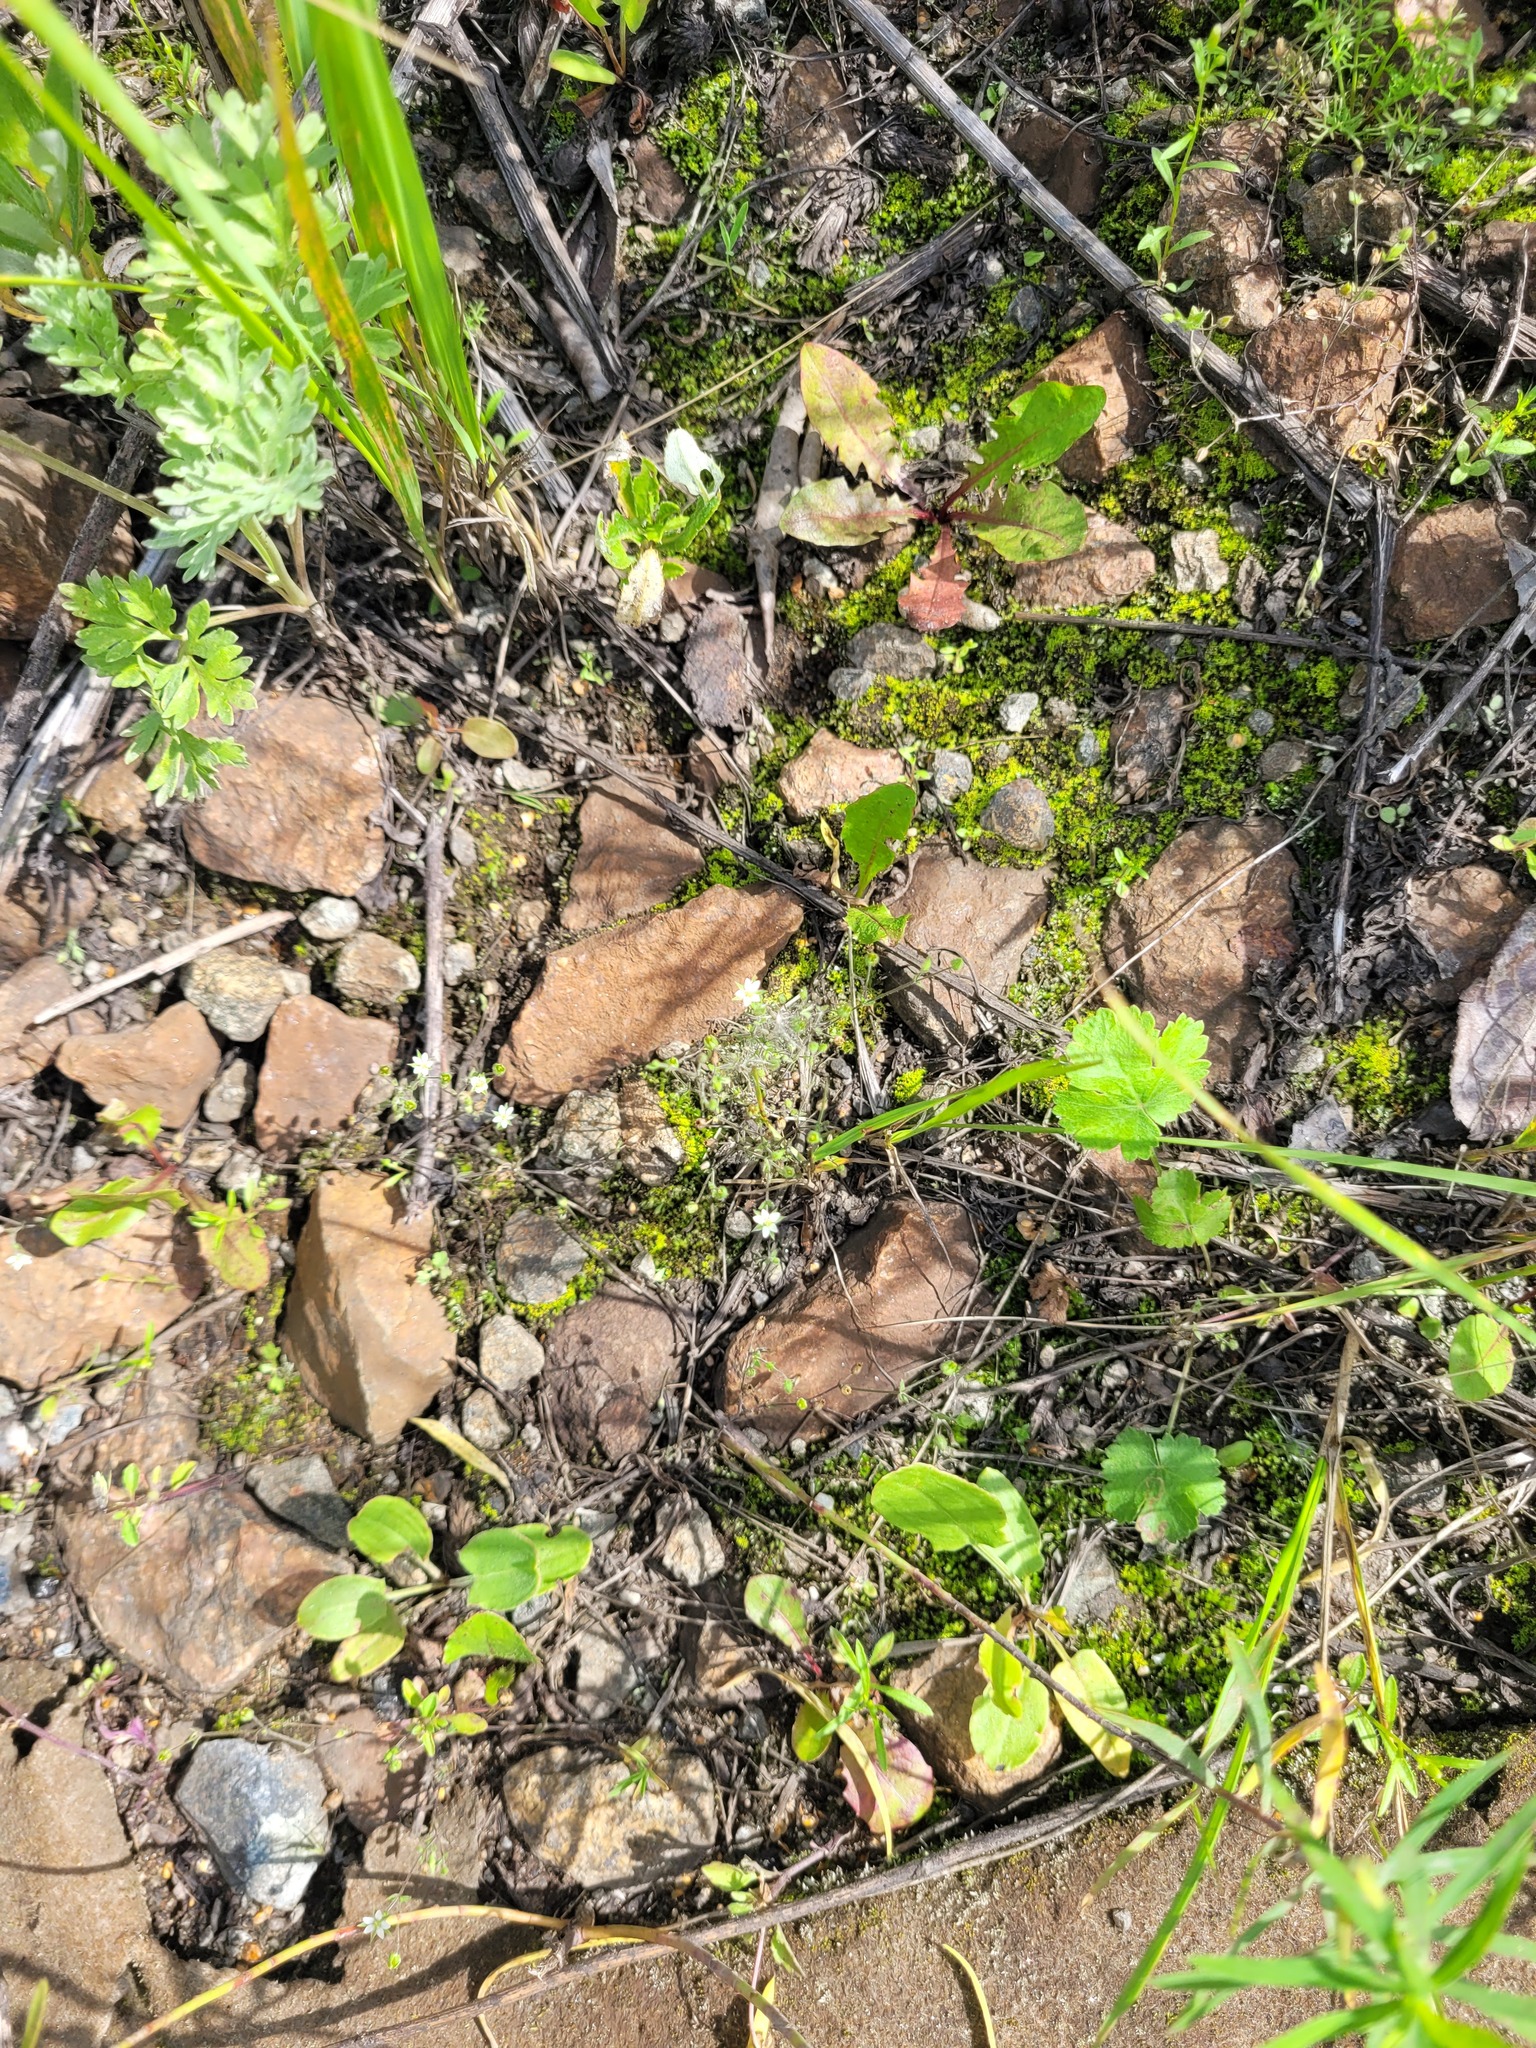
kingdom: Plantae
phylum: Tracheophyta
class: Magnoliopsida
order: Caryophyllales
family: Caryophyllaceae
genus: Arenaria
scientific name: Arenaria serpyllifolia
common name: Thyme-leaved sandwort
